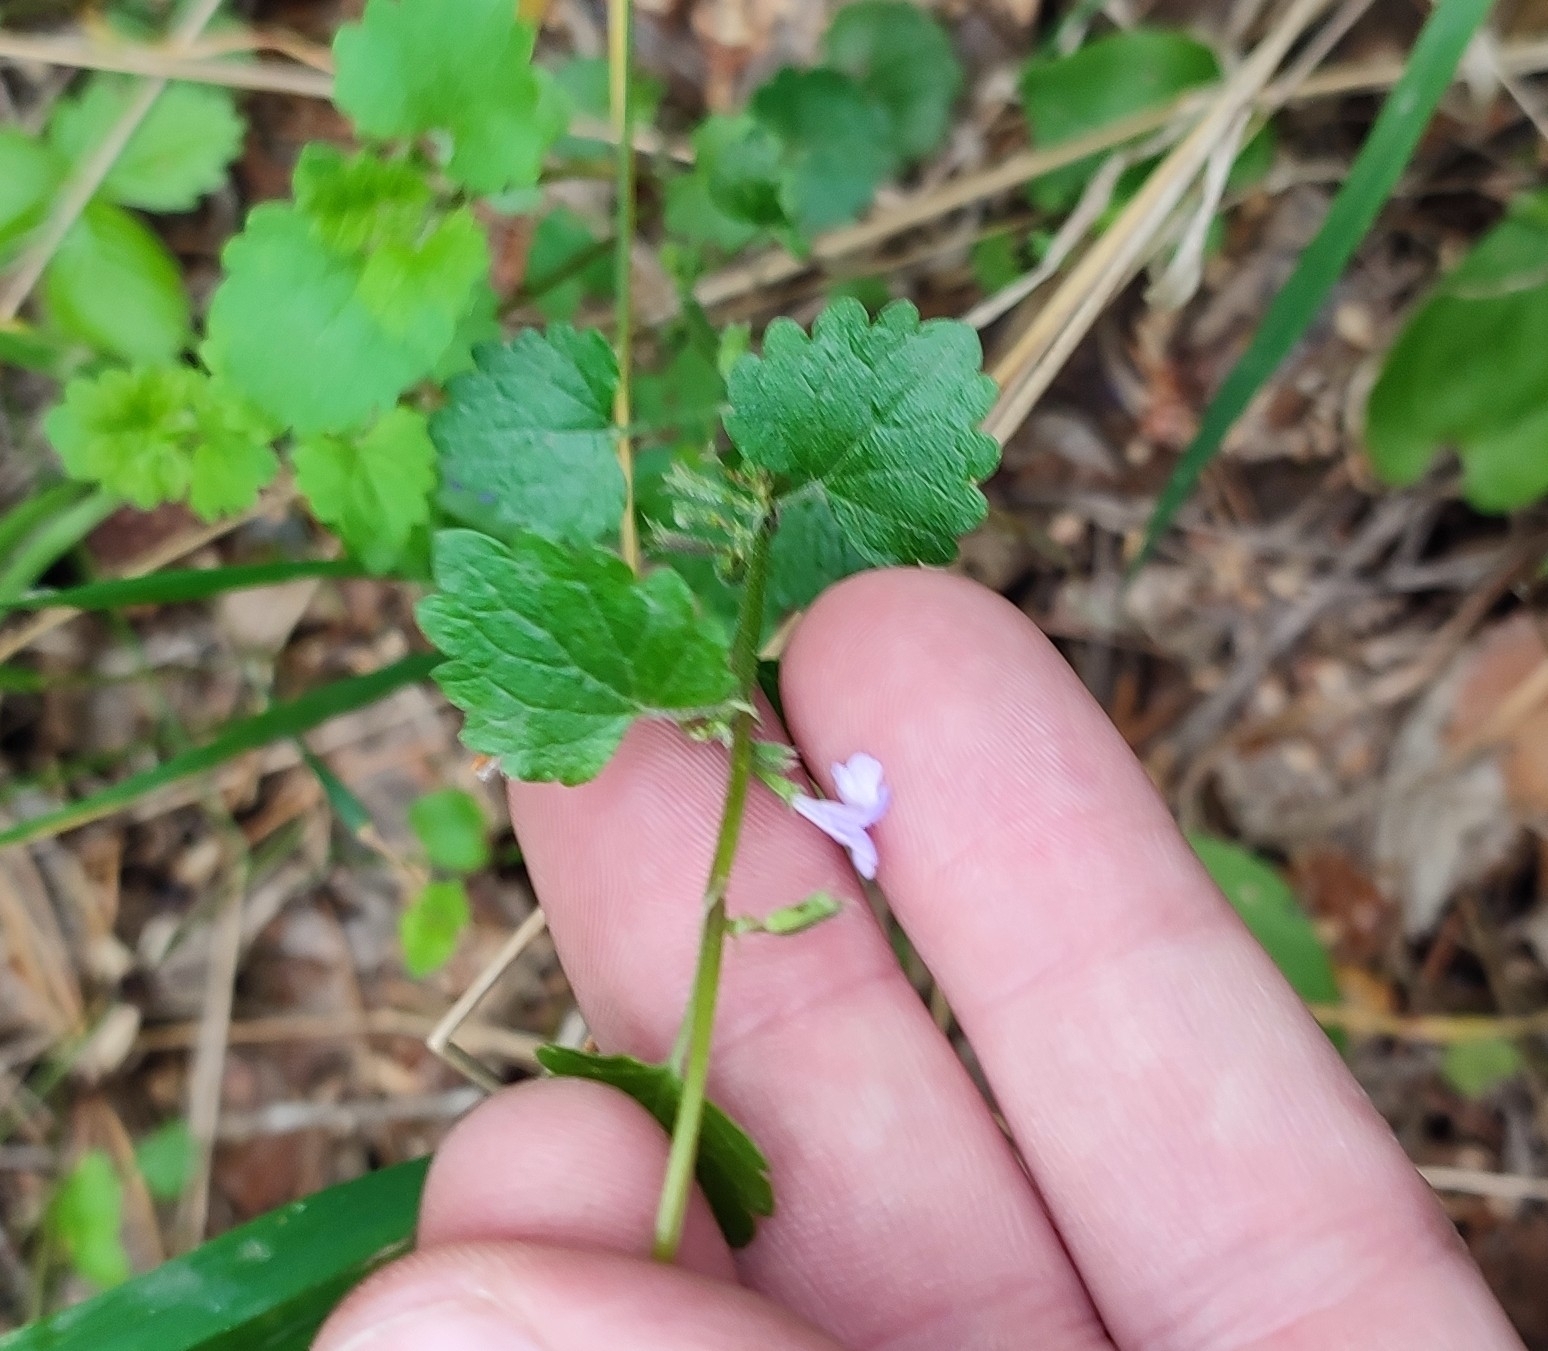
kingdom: Plantae
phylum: Tracheophyta
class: Magnoliopsida
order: Lamiales
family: Lamiaceae
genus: Glechoma
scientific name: Glechoma hederacea
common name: Ground ivy
